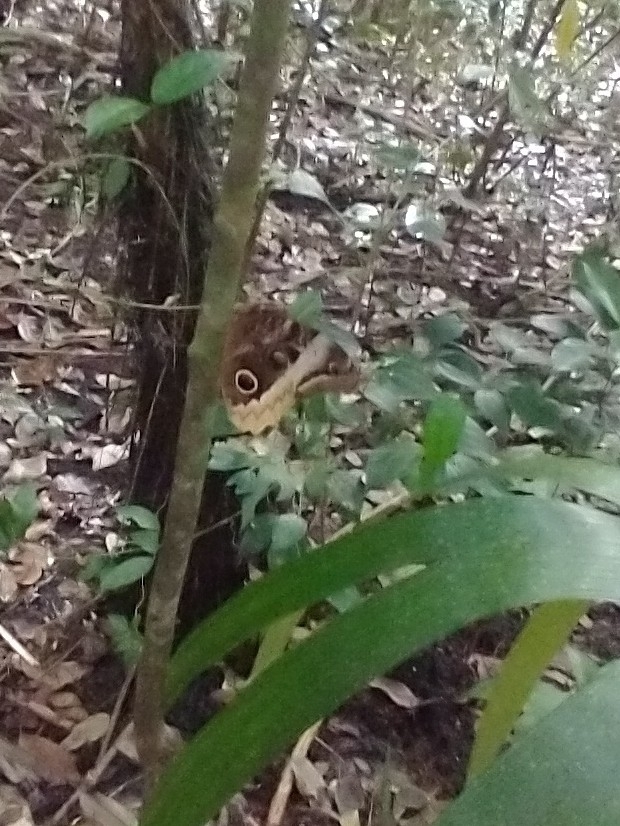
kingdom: Animalia
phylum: Arthropoda
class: Insecta
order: Lepidoptera
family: Nymphalidae
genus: Caligo
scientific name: Caligo uranus
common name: Gold-edged owl-butterfly
